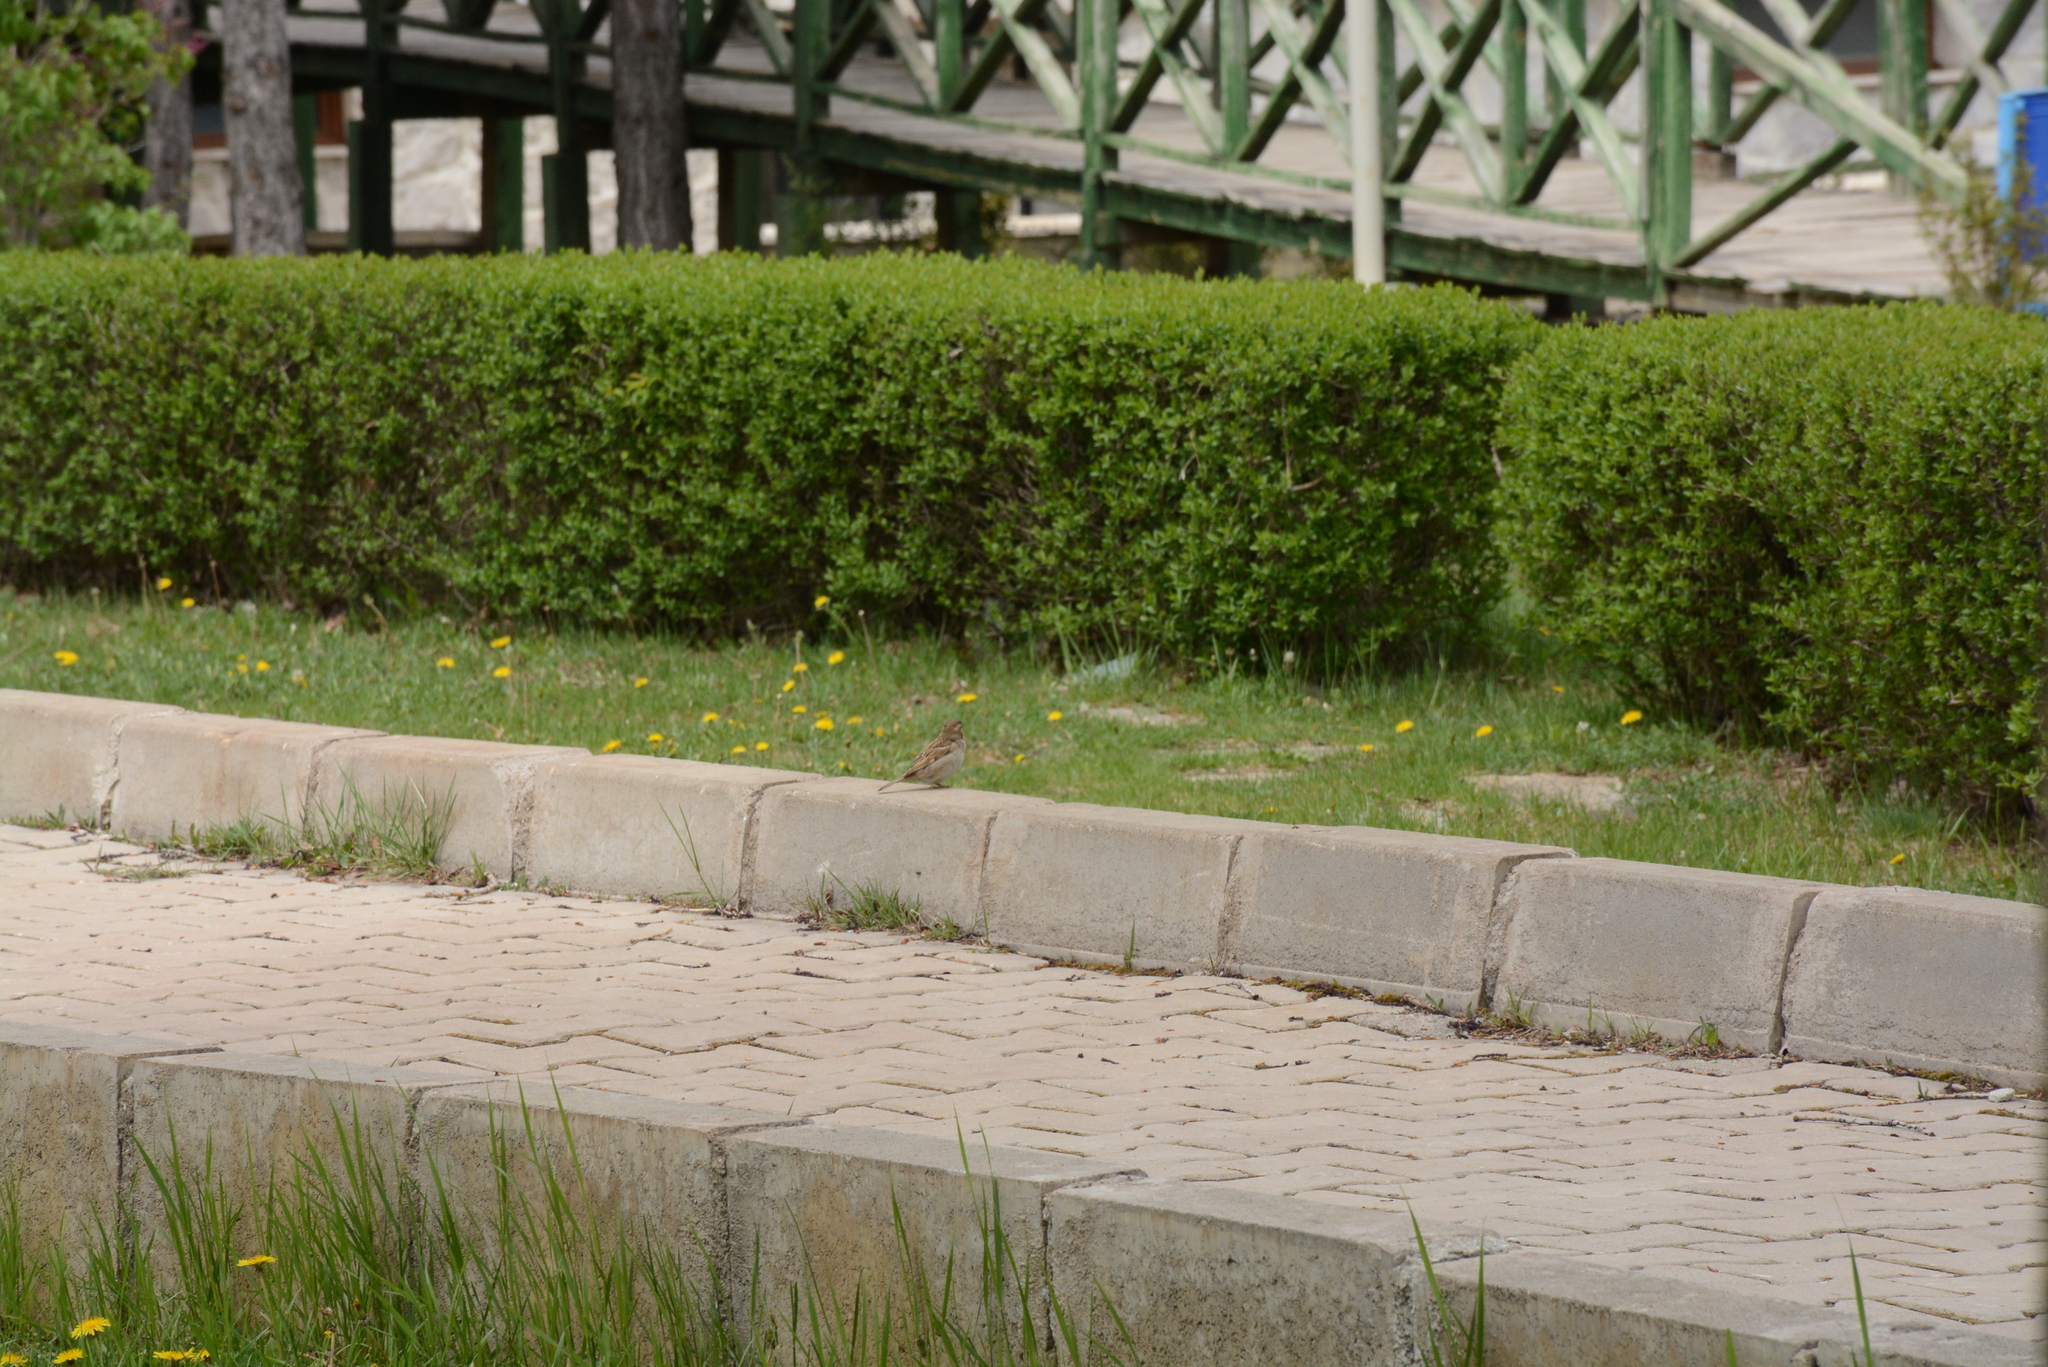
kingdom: Animalia
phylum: Chordata
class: Aves
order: Passeriformes
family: Passeridae
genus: Passer
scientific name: Passer domesticus
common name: House sparrow
